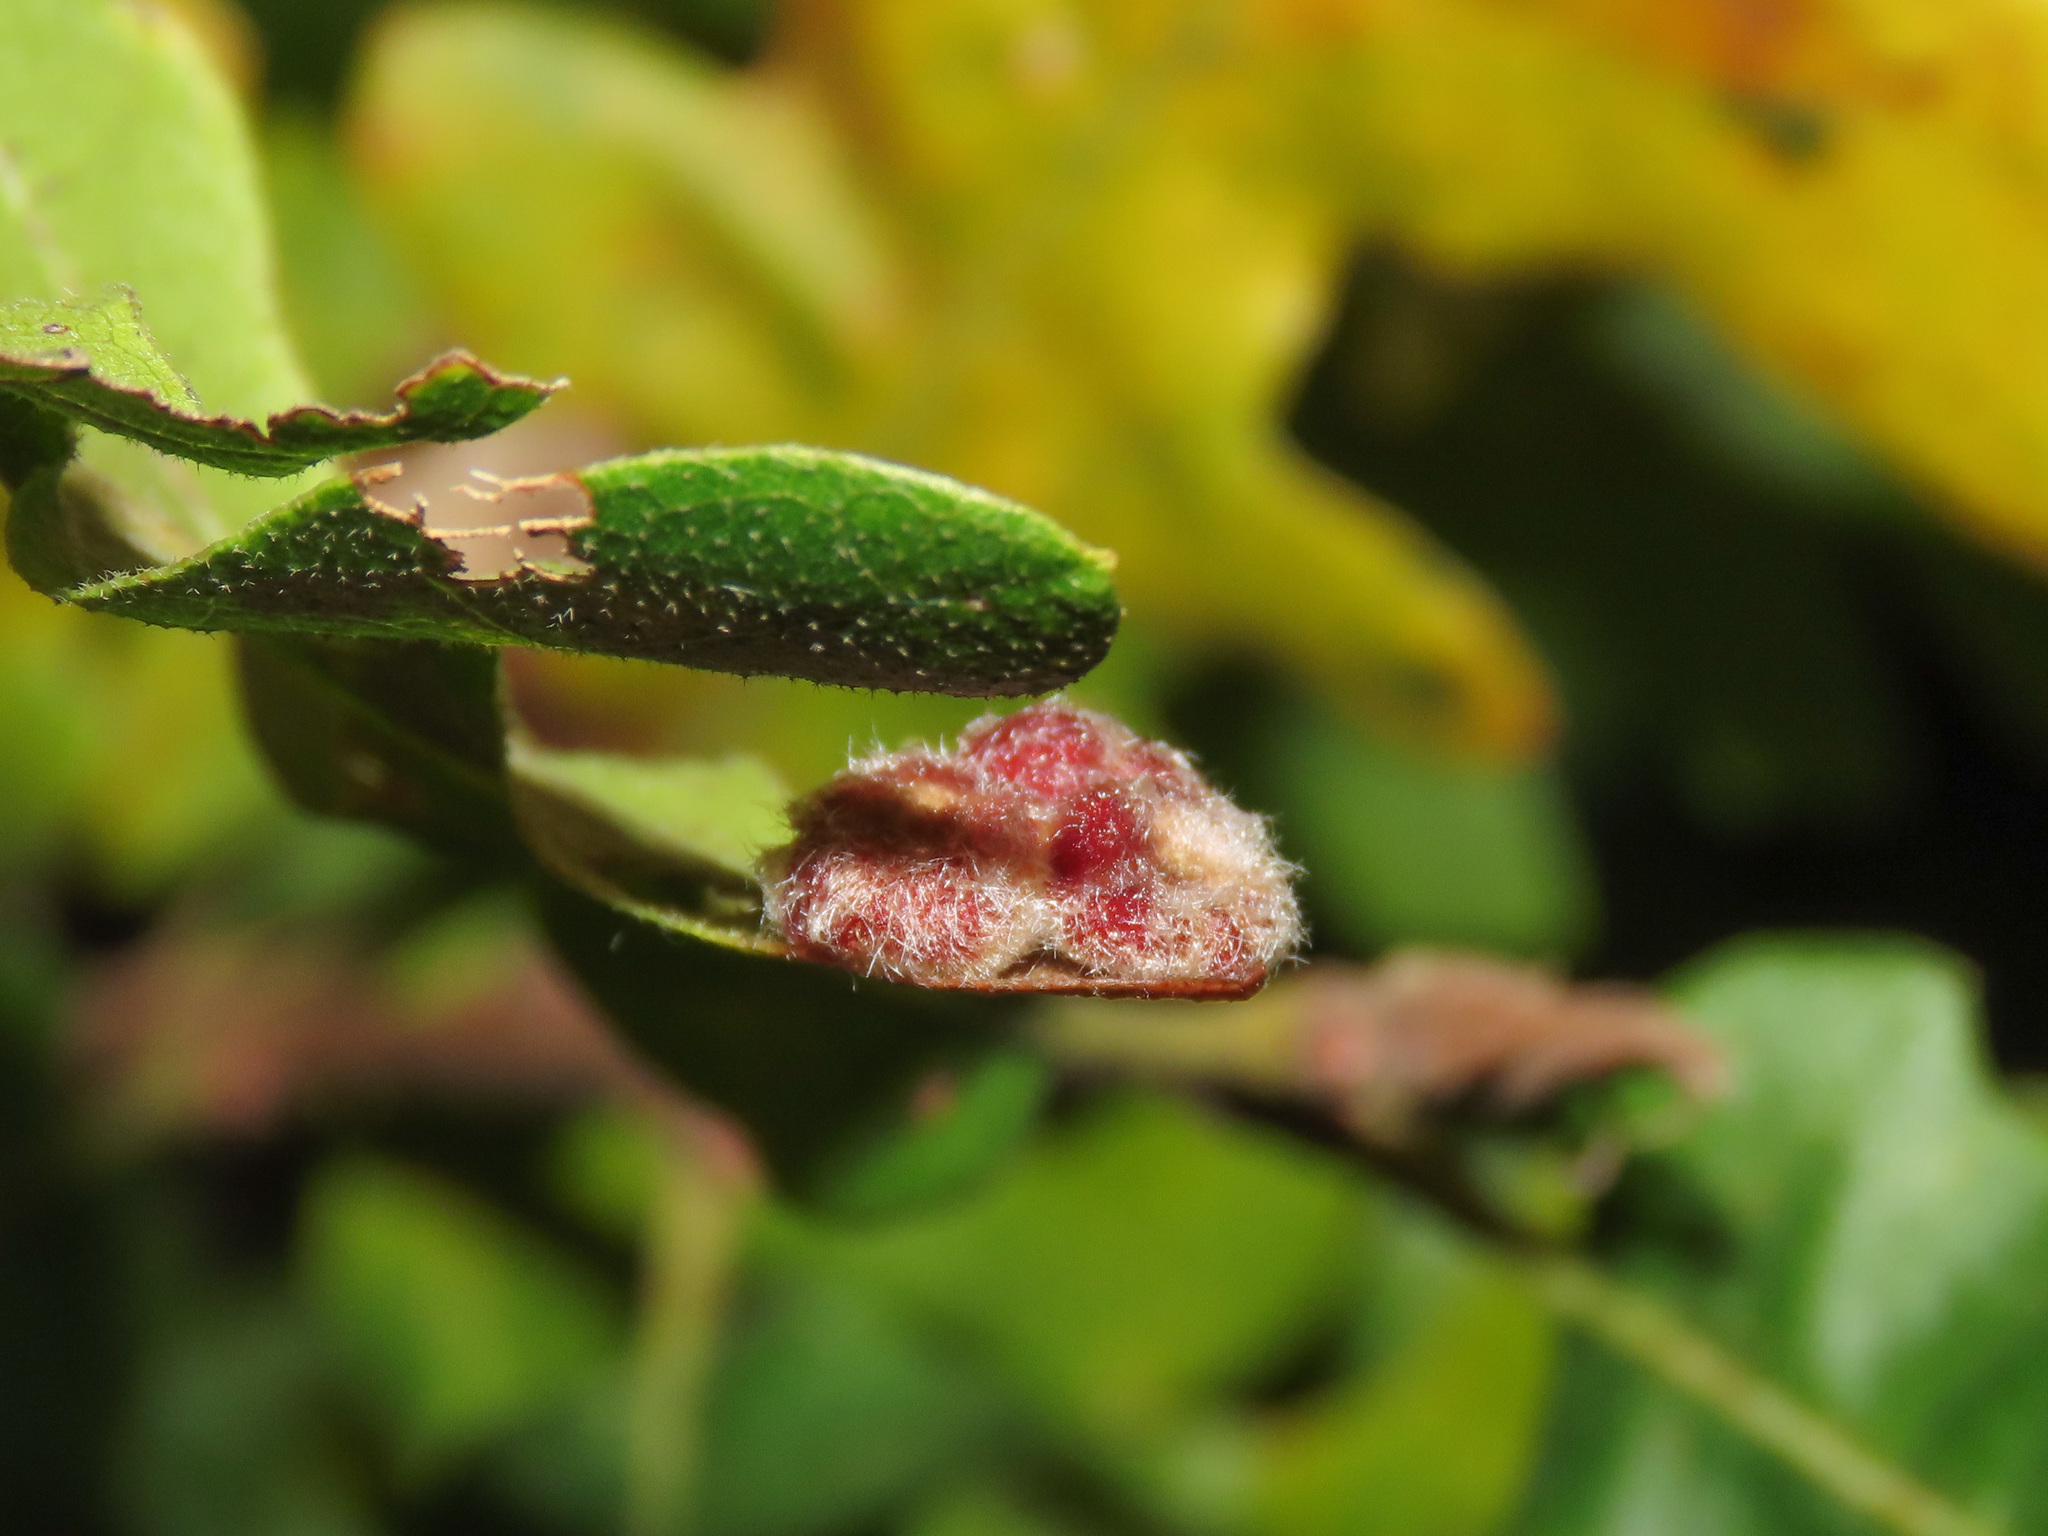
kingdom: Animalia
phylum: Arthropoda
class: Insecta
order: Hymenoptera
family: Cynipidae
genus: Neuroterus
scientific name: Neuroterus lanuginosus
